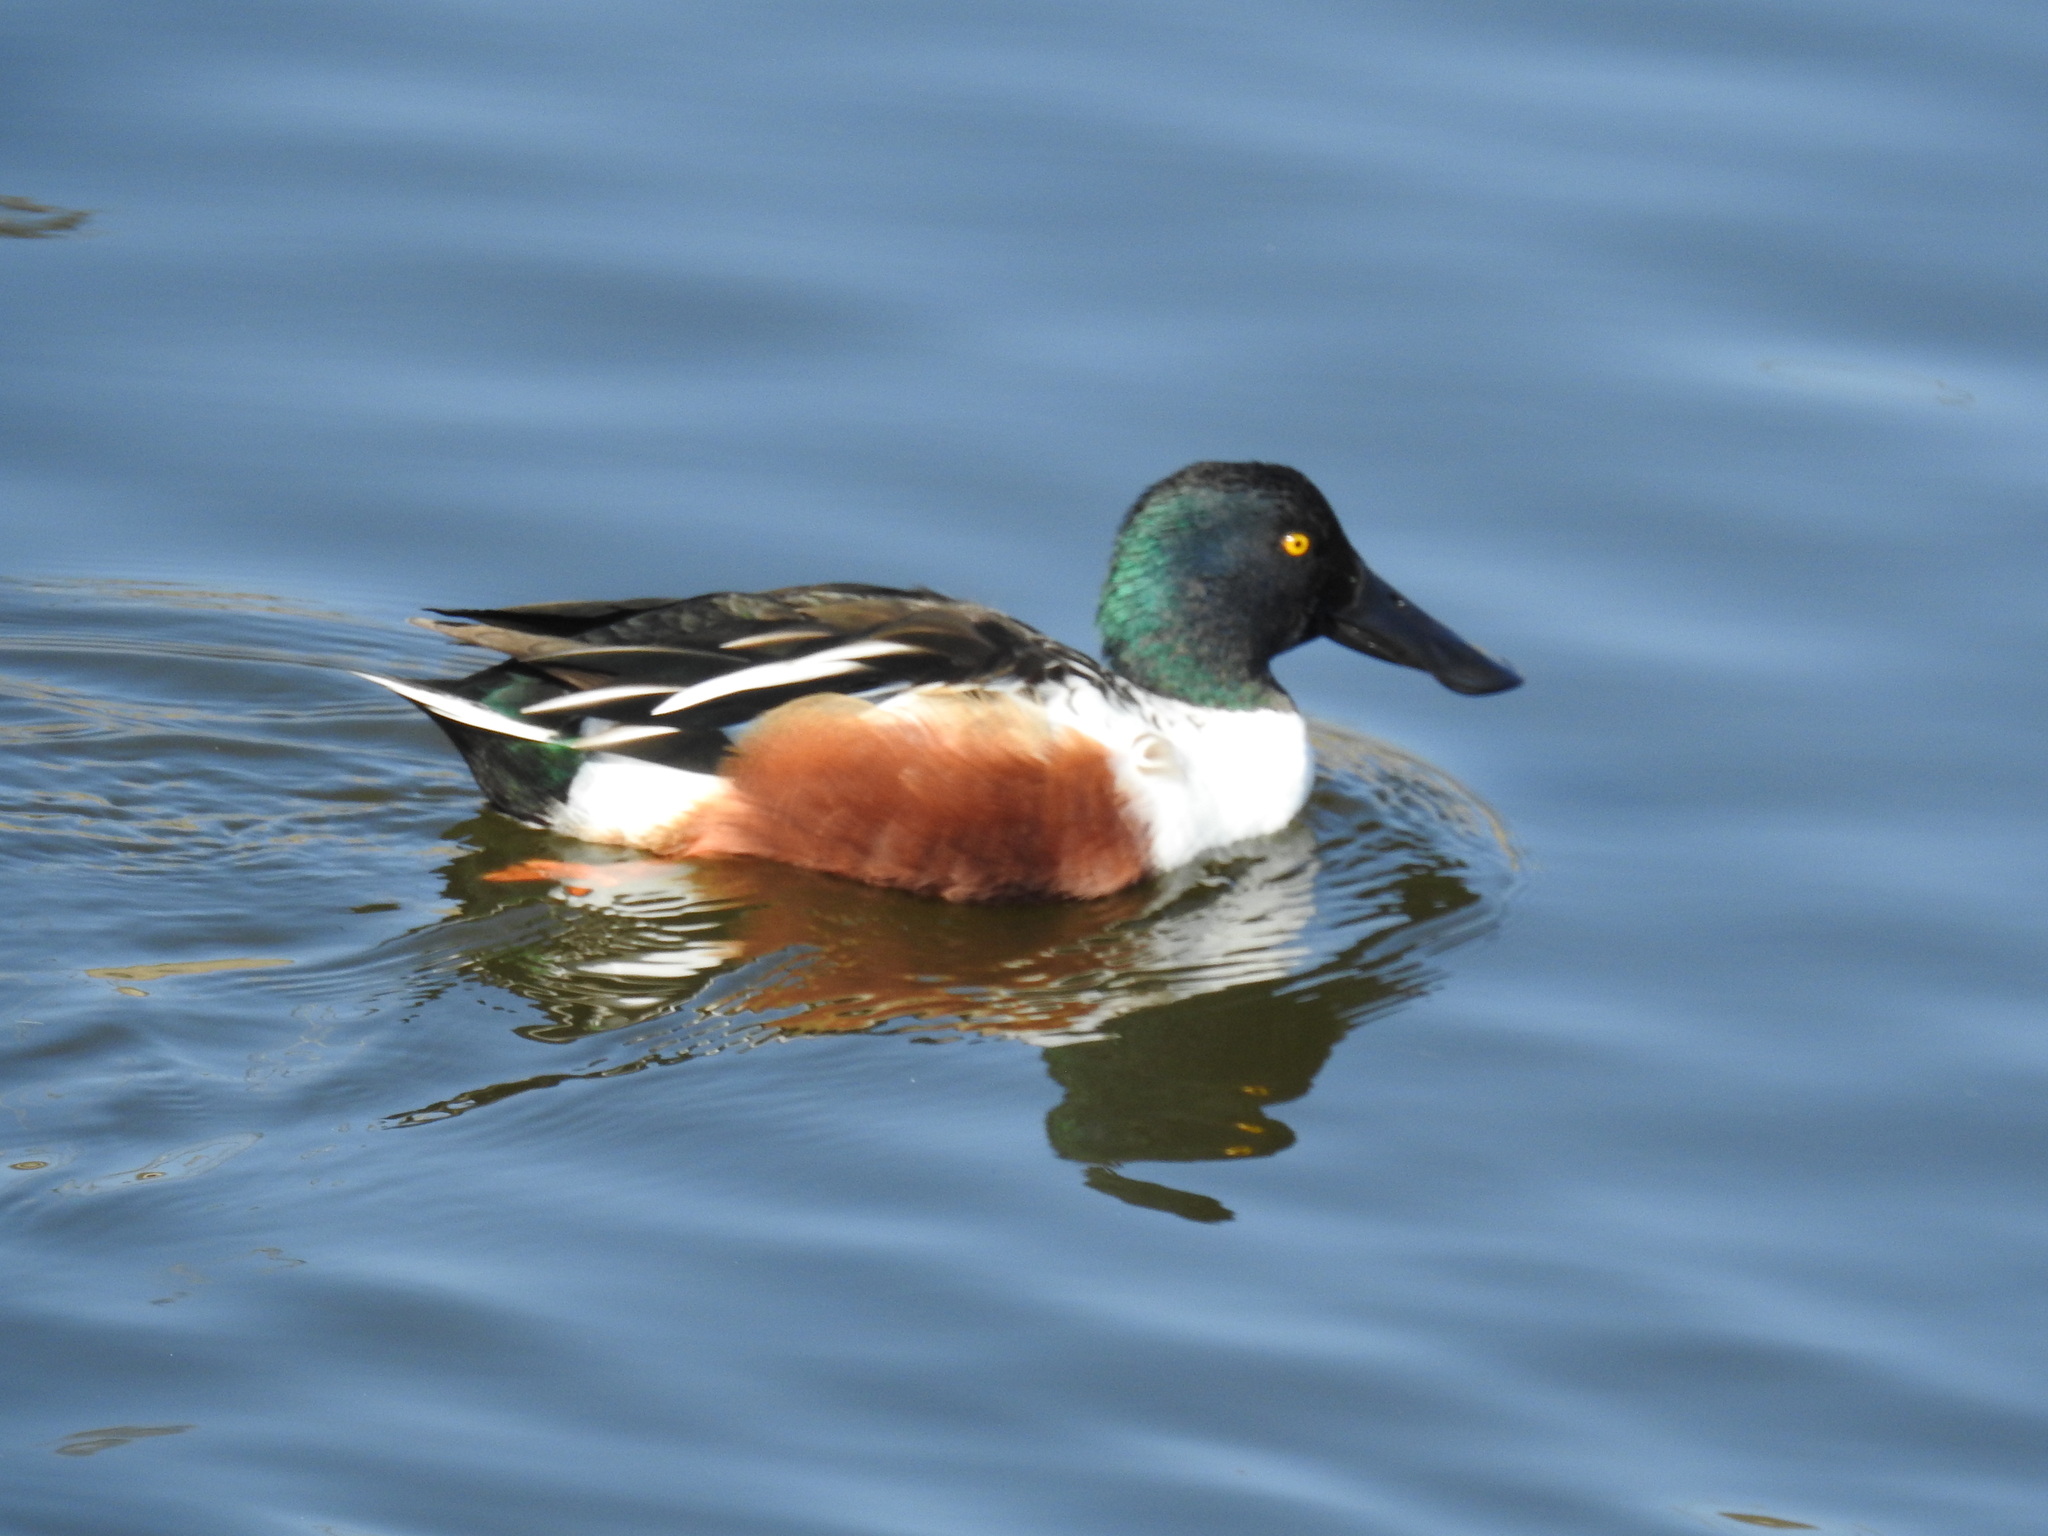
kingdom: Animalia
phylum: Chordata
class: Aves
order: Anseriformes
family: Anatidae
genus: Spatula
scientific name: Spatula clypeata
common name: Northern shoveler
